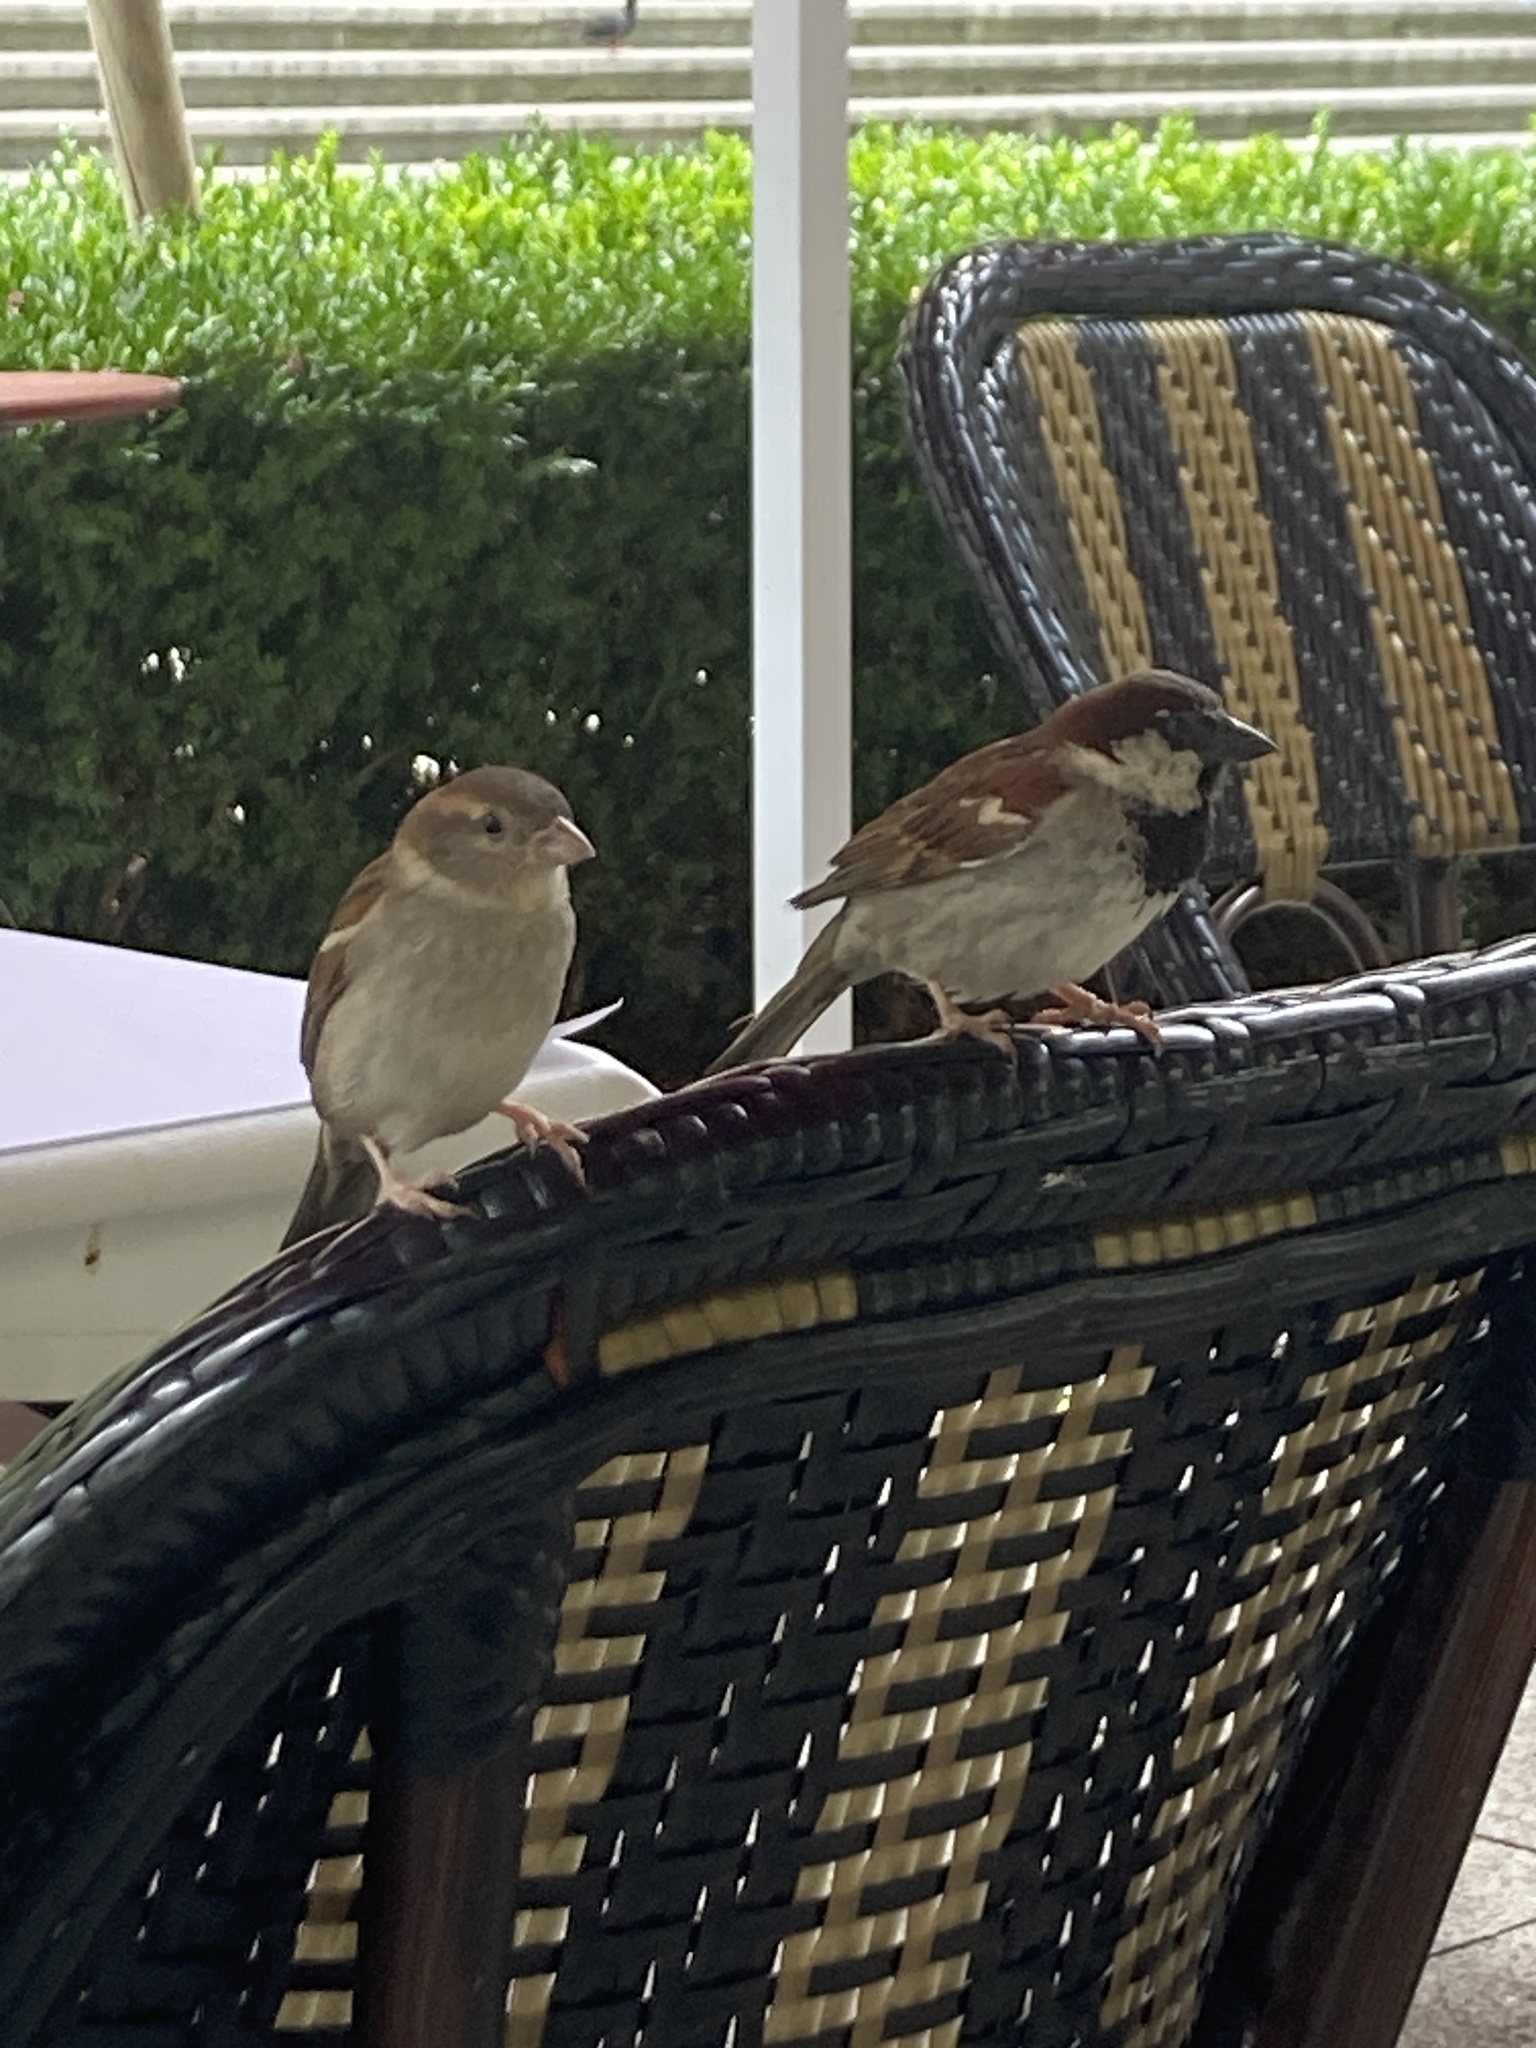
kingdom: Animalia
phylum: Chordata
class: Aves
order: Passeriformes
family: Passeridae
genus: Passer
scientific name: Passer domesticus
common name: House sparrow
